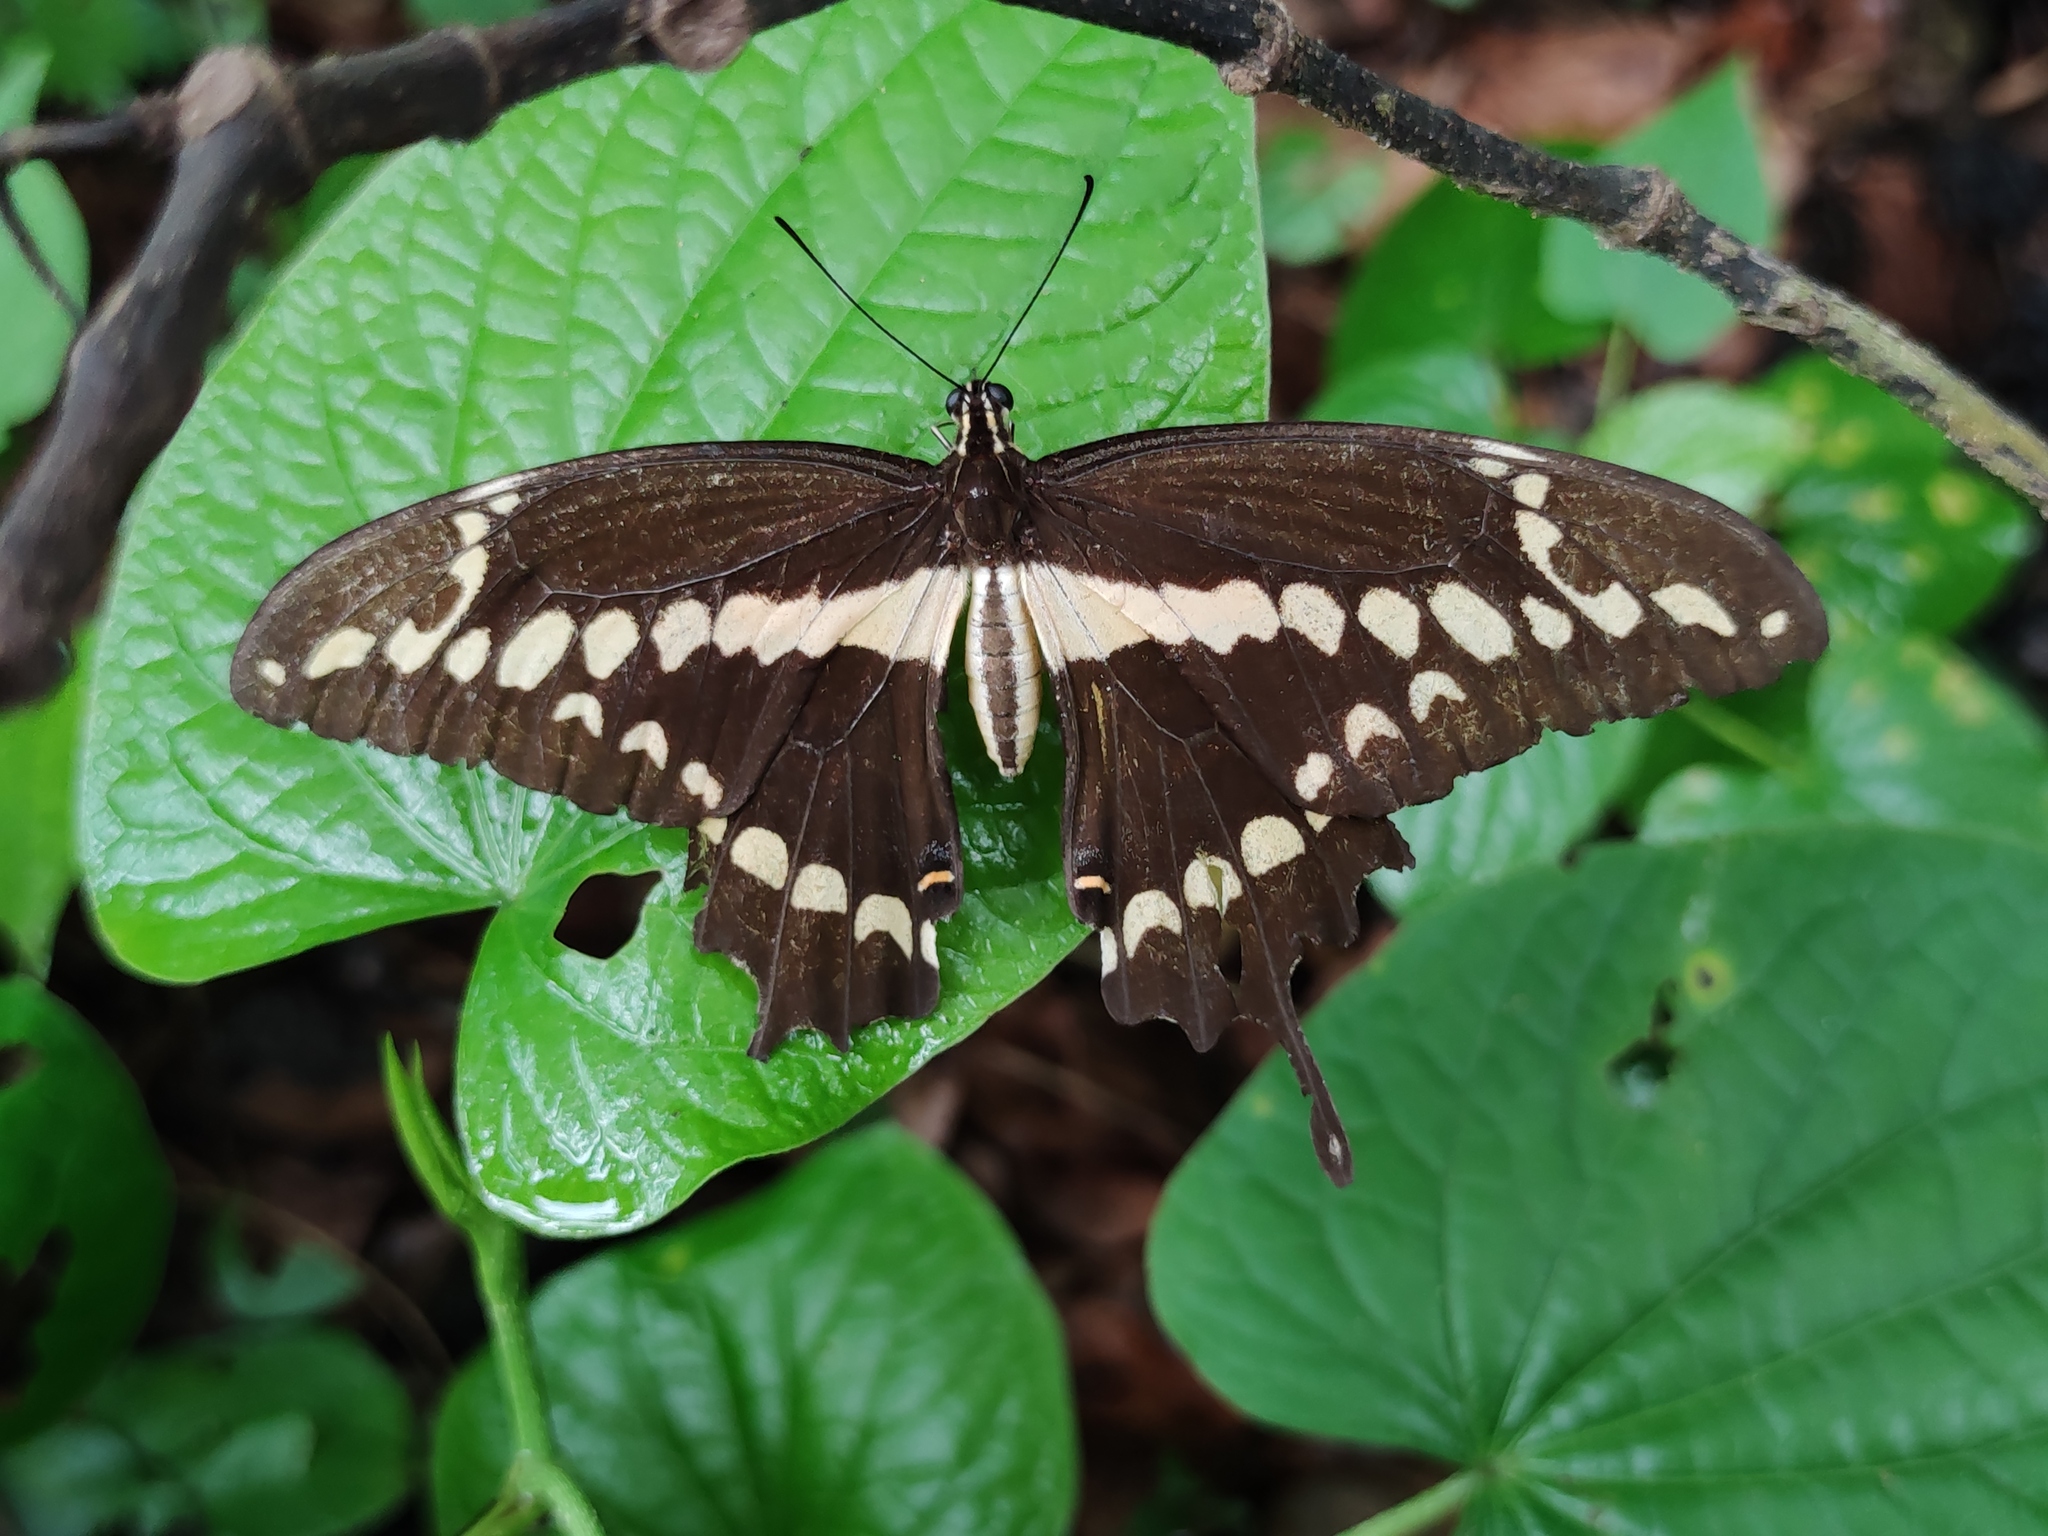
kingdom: Animalia
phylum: Arthropoda
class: Insecta
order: Lepidoptera
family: Papilionidae
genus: Papilio
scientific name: Papilio rumiko
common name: Western giant swallowtail
